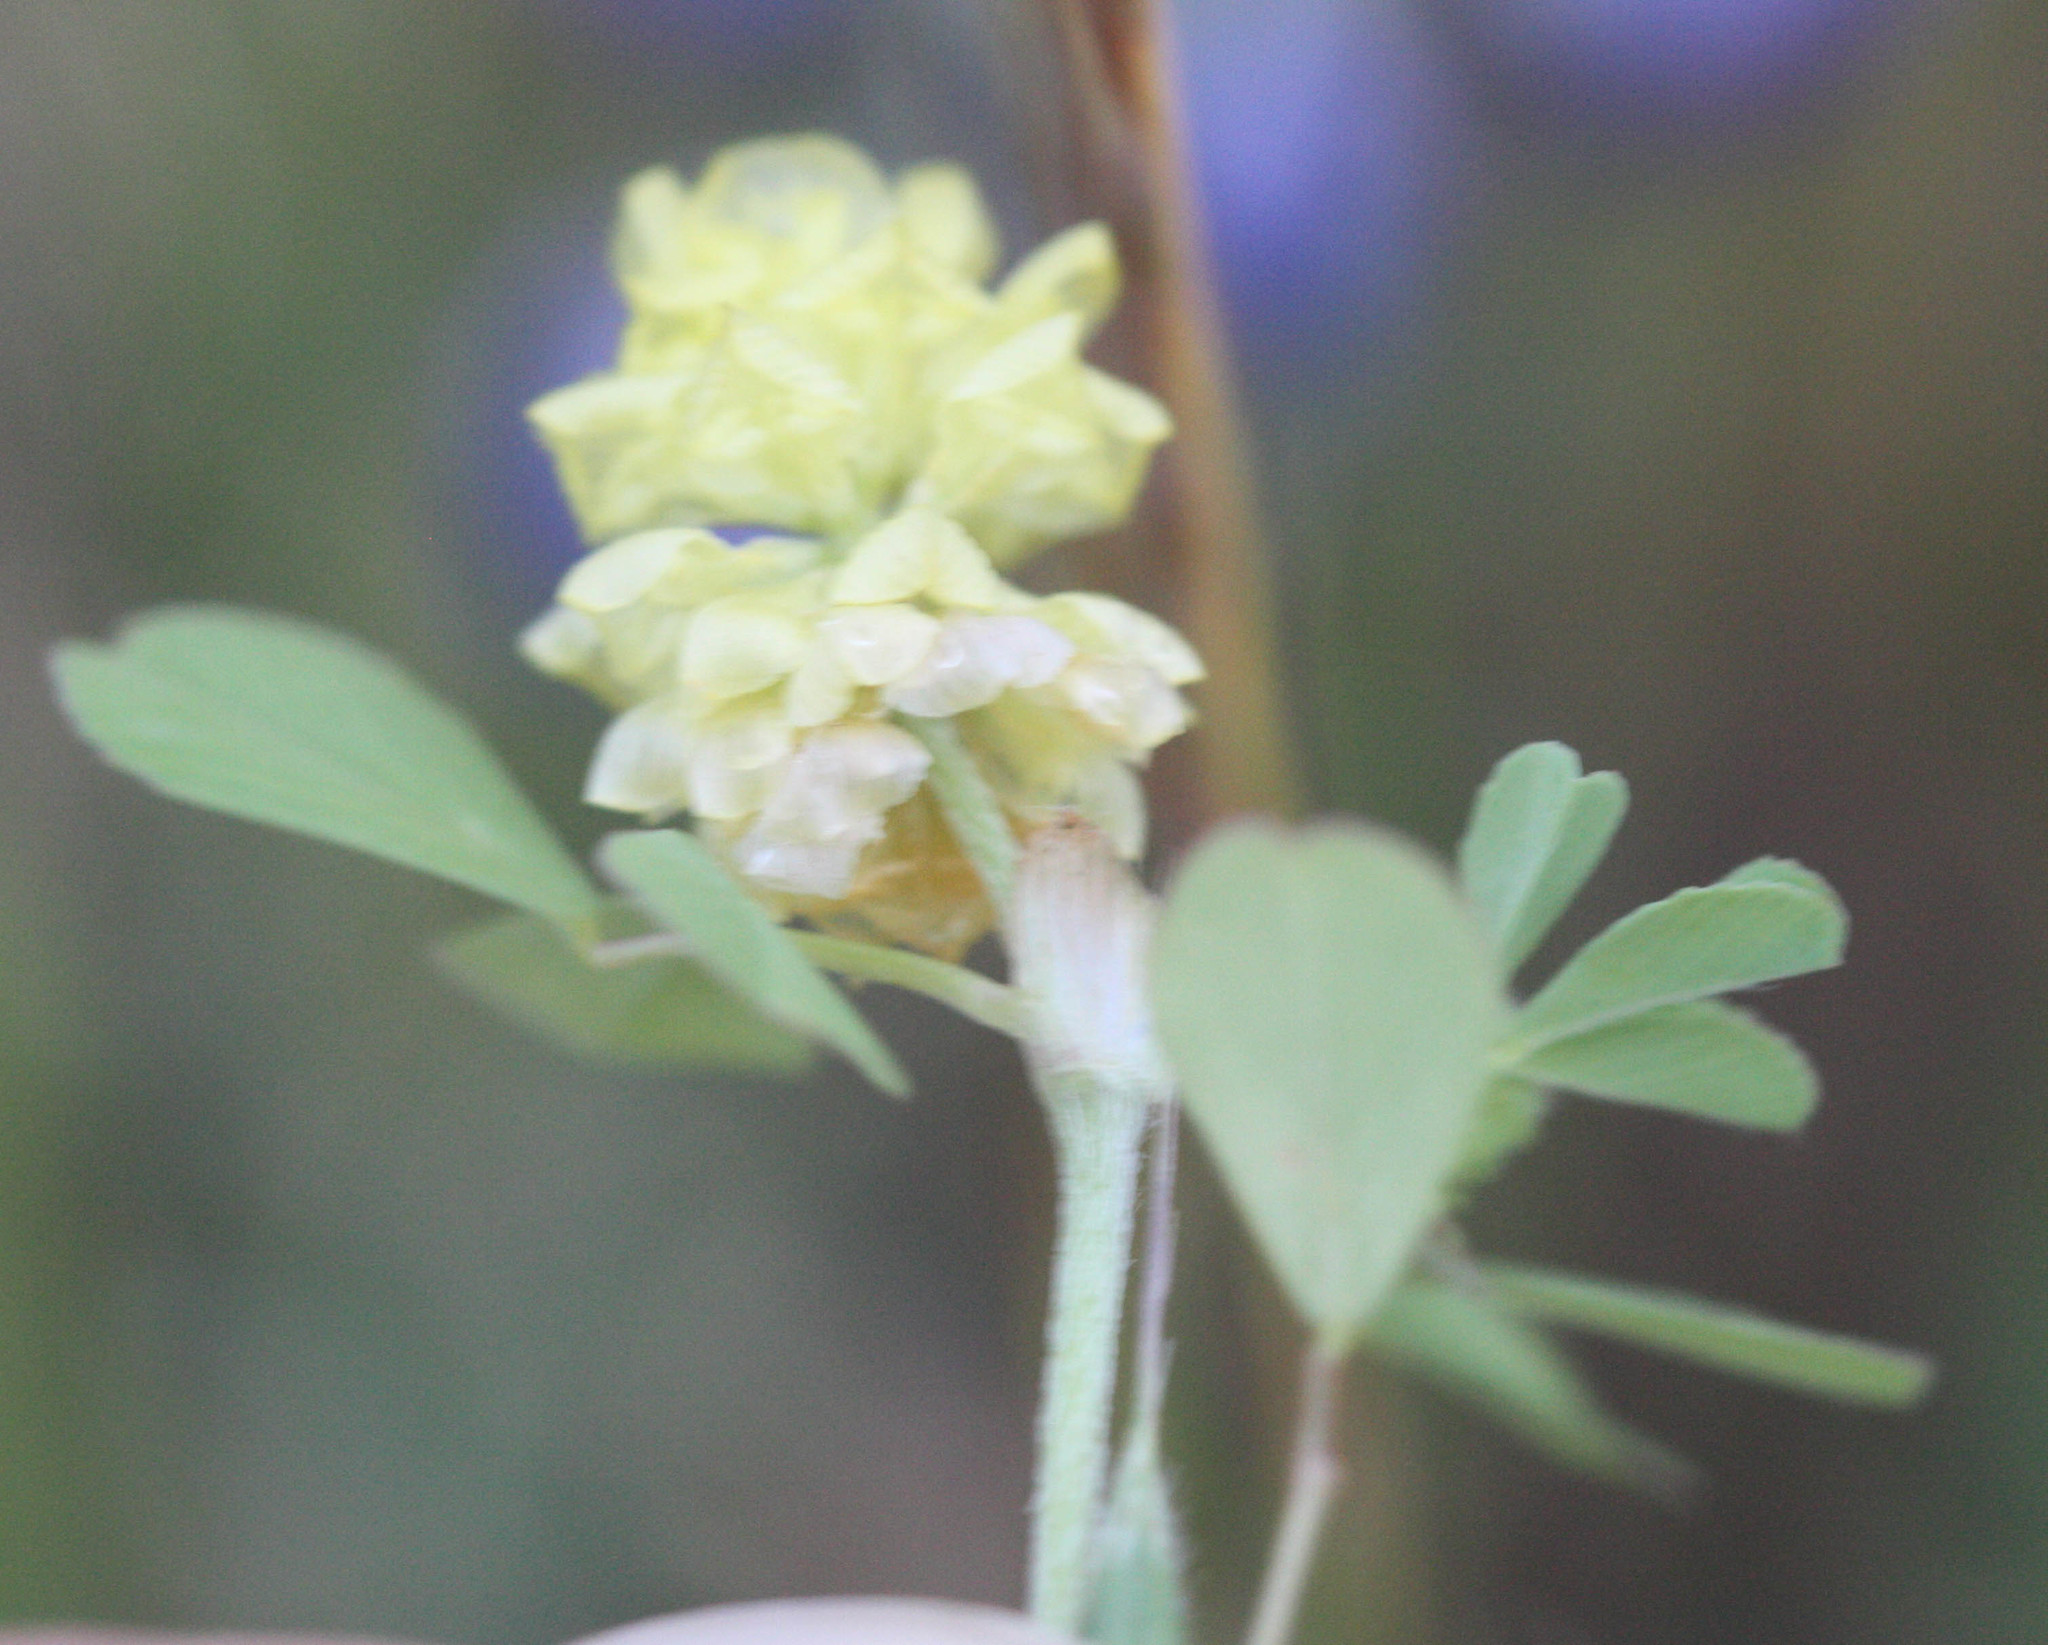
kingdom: Plantae
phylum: Tracheophyta
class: Magnoliopsida
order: Fabales
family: Fabaceae
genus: Trifolium
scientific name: Trifolium campestre
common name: Field clover
